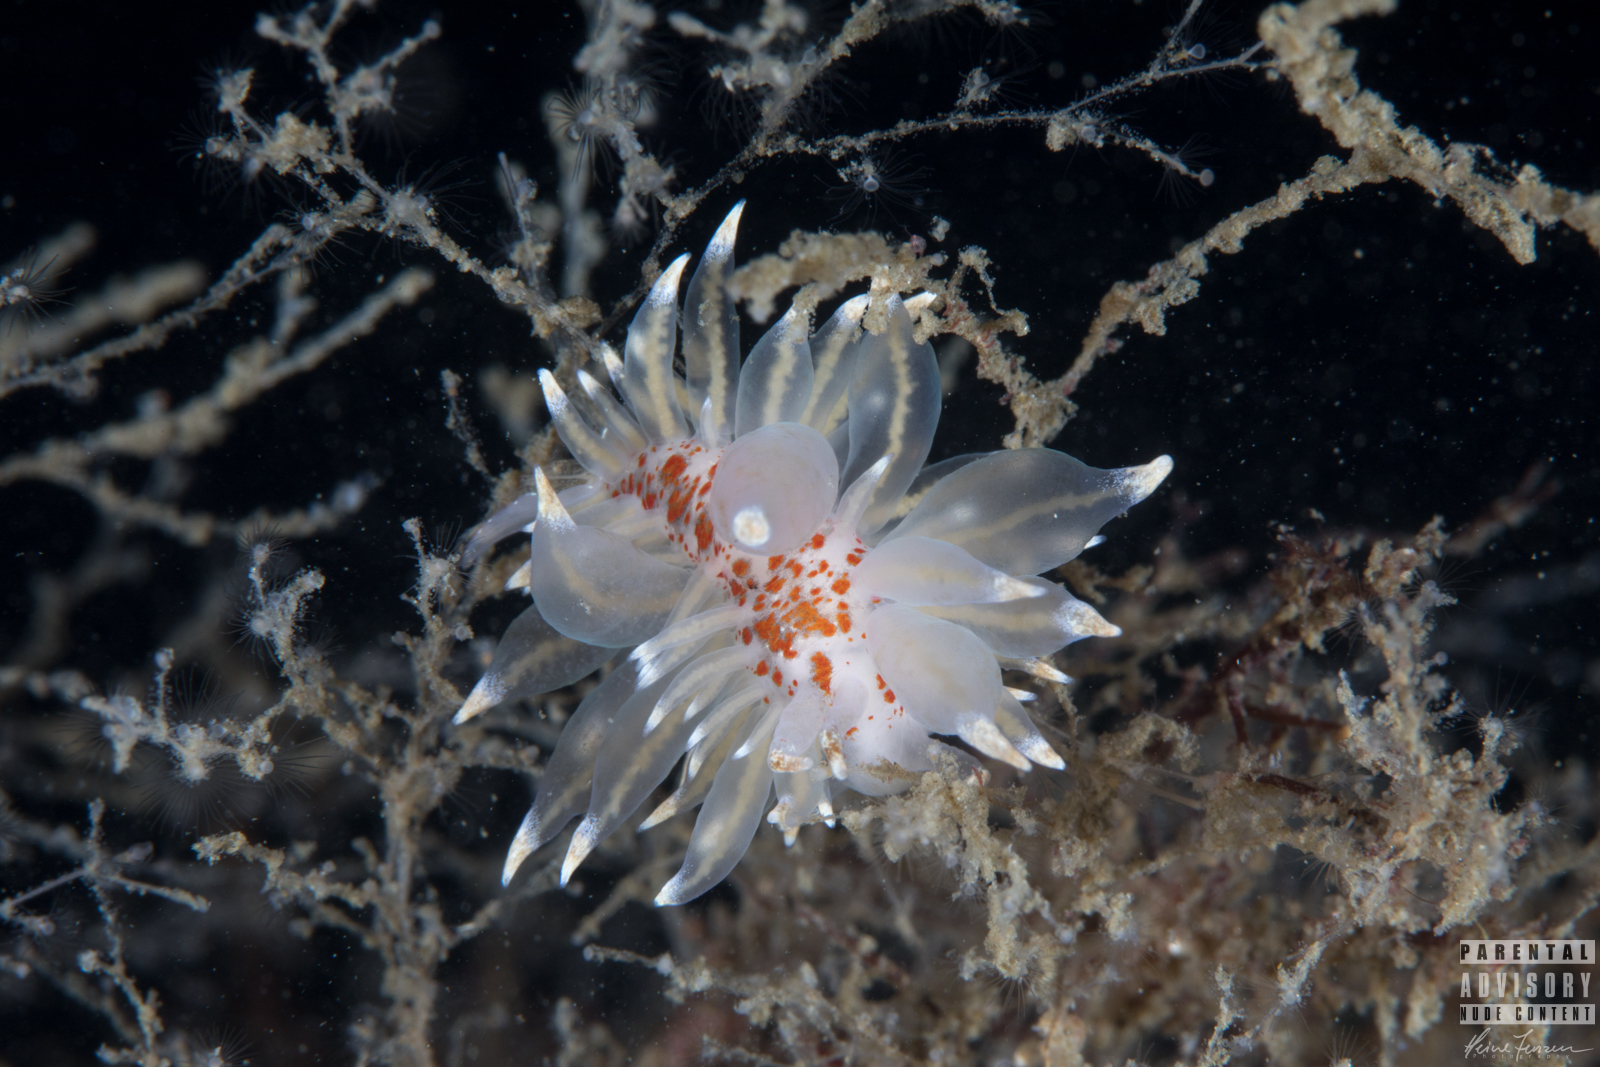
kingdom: Animalia
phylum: Mollusca
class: Gastropoda
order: Nudibranchia
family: Eubranchidae
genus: Amphorina
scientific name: Amphorina linensis
